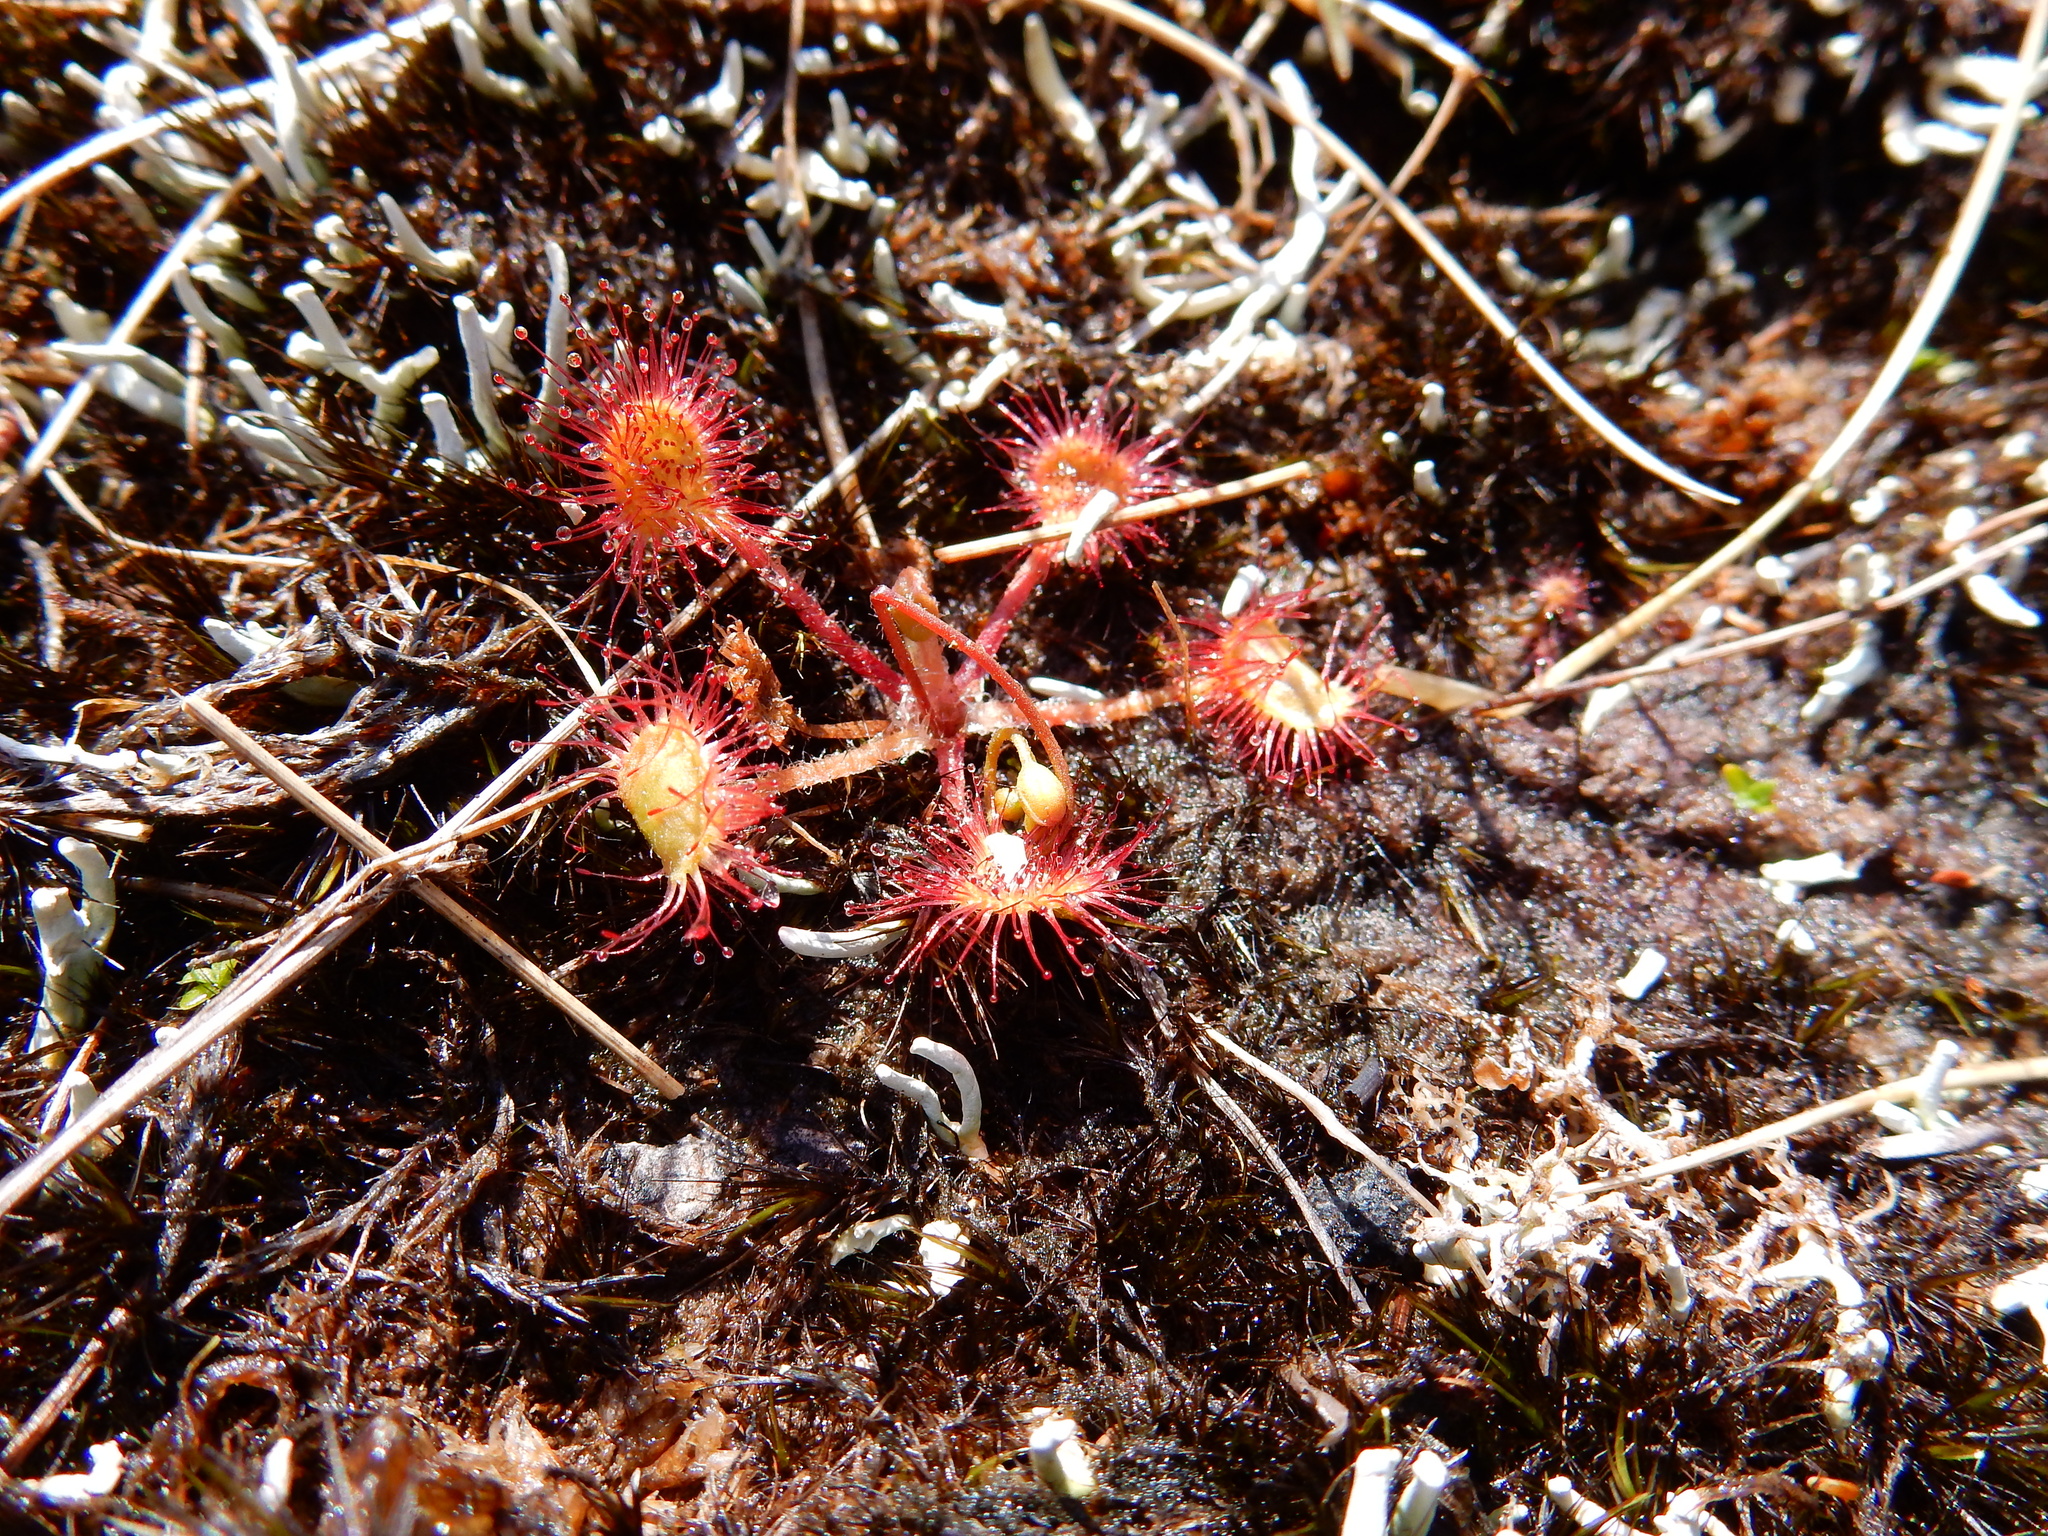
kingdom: Plantae
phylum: Tracheophyta
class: Magnoliopsida
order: Caryophyllales
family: Droseraceae
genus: Drosera
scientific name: Drosera rotundifolia
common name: Round-leaved sundew
